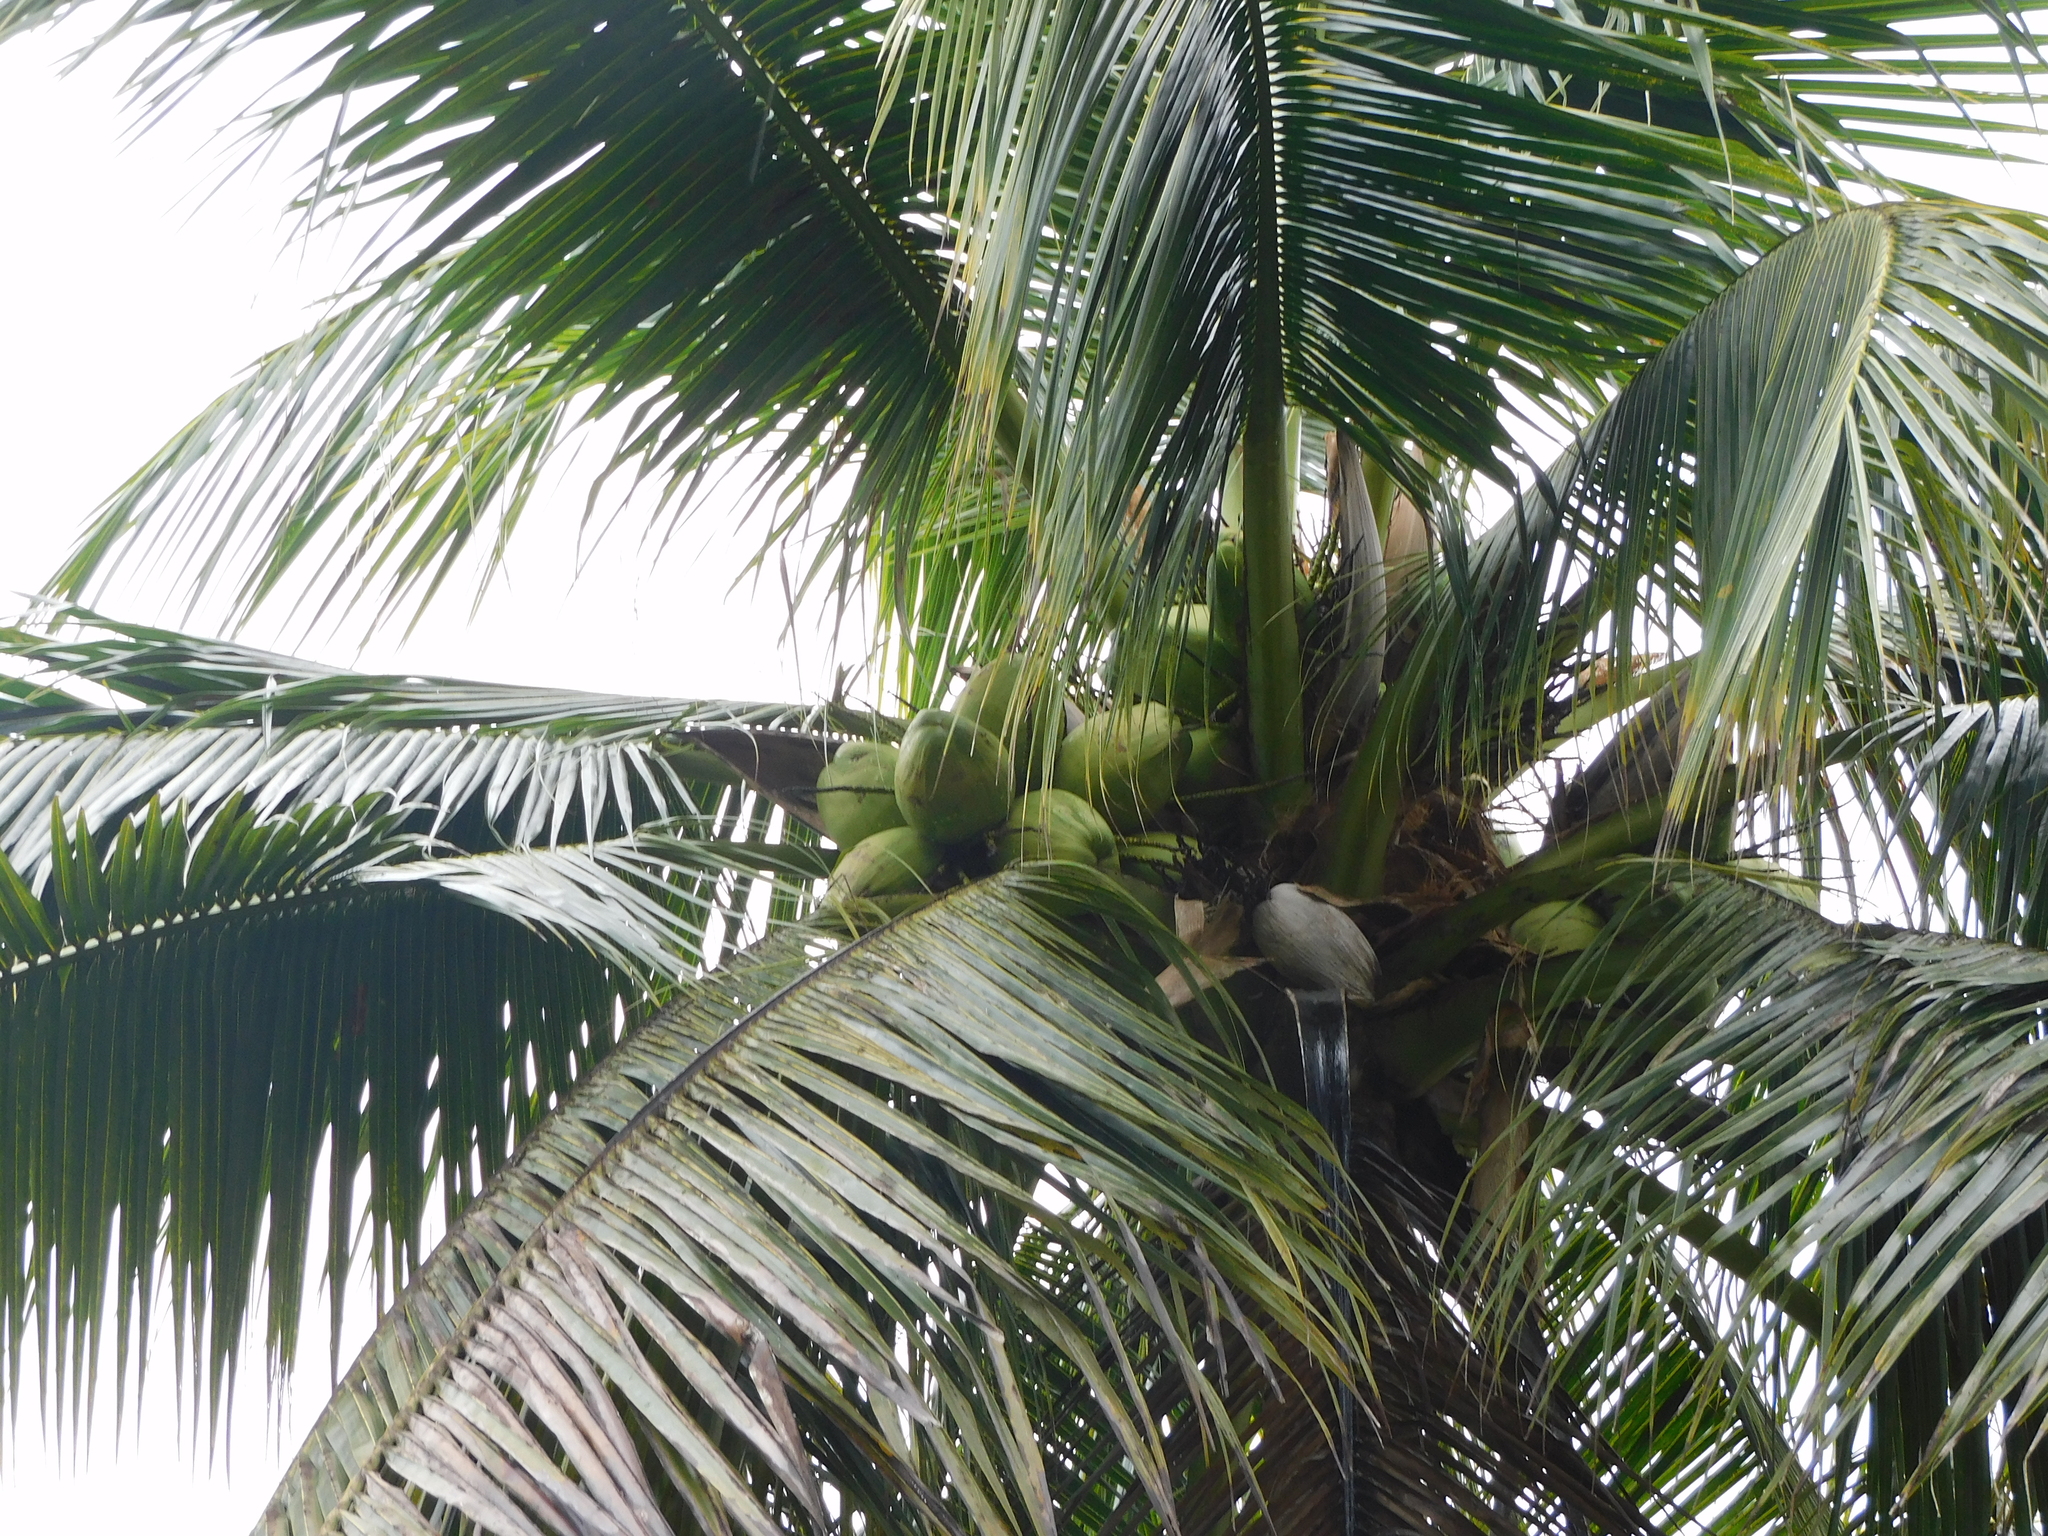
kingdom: Plantae
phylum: Tracheophyta
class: Liliopsida
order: Arecales
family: Arecaceae
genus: Cocos
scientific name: Cocos nucifera
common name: Coconut palm
